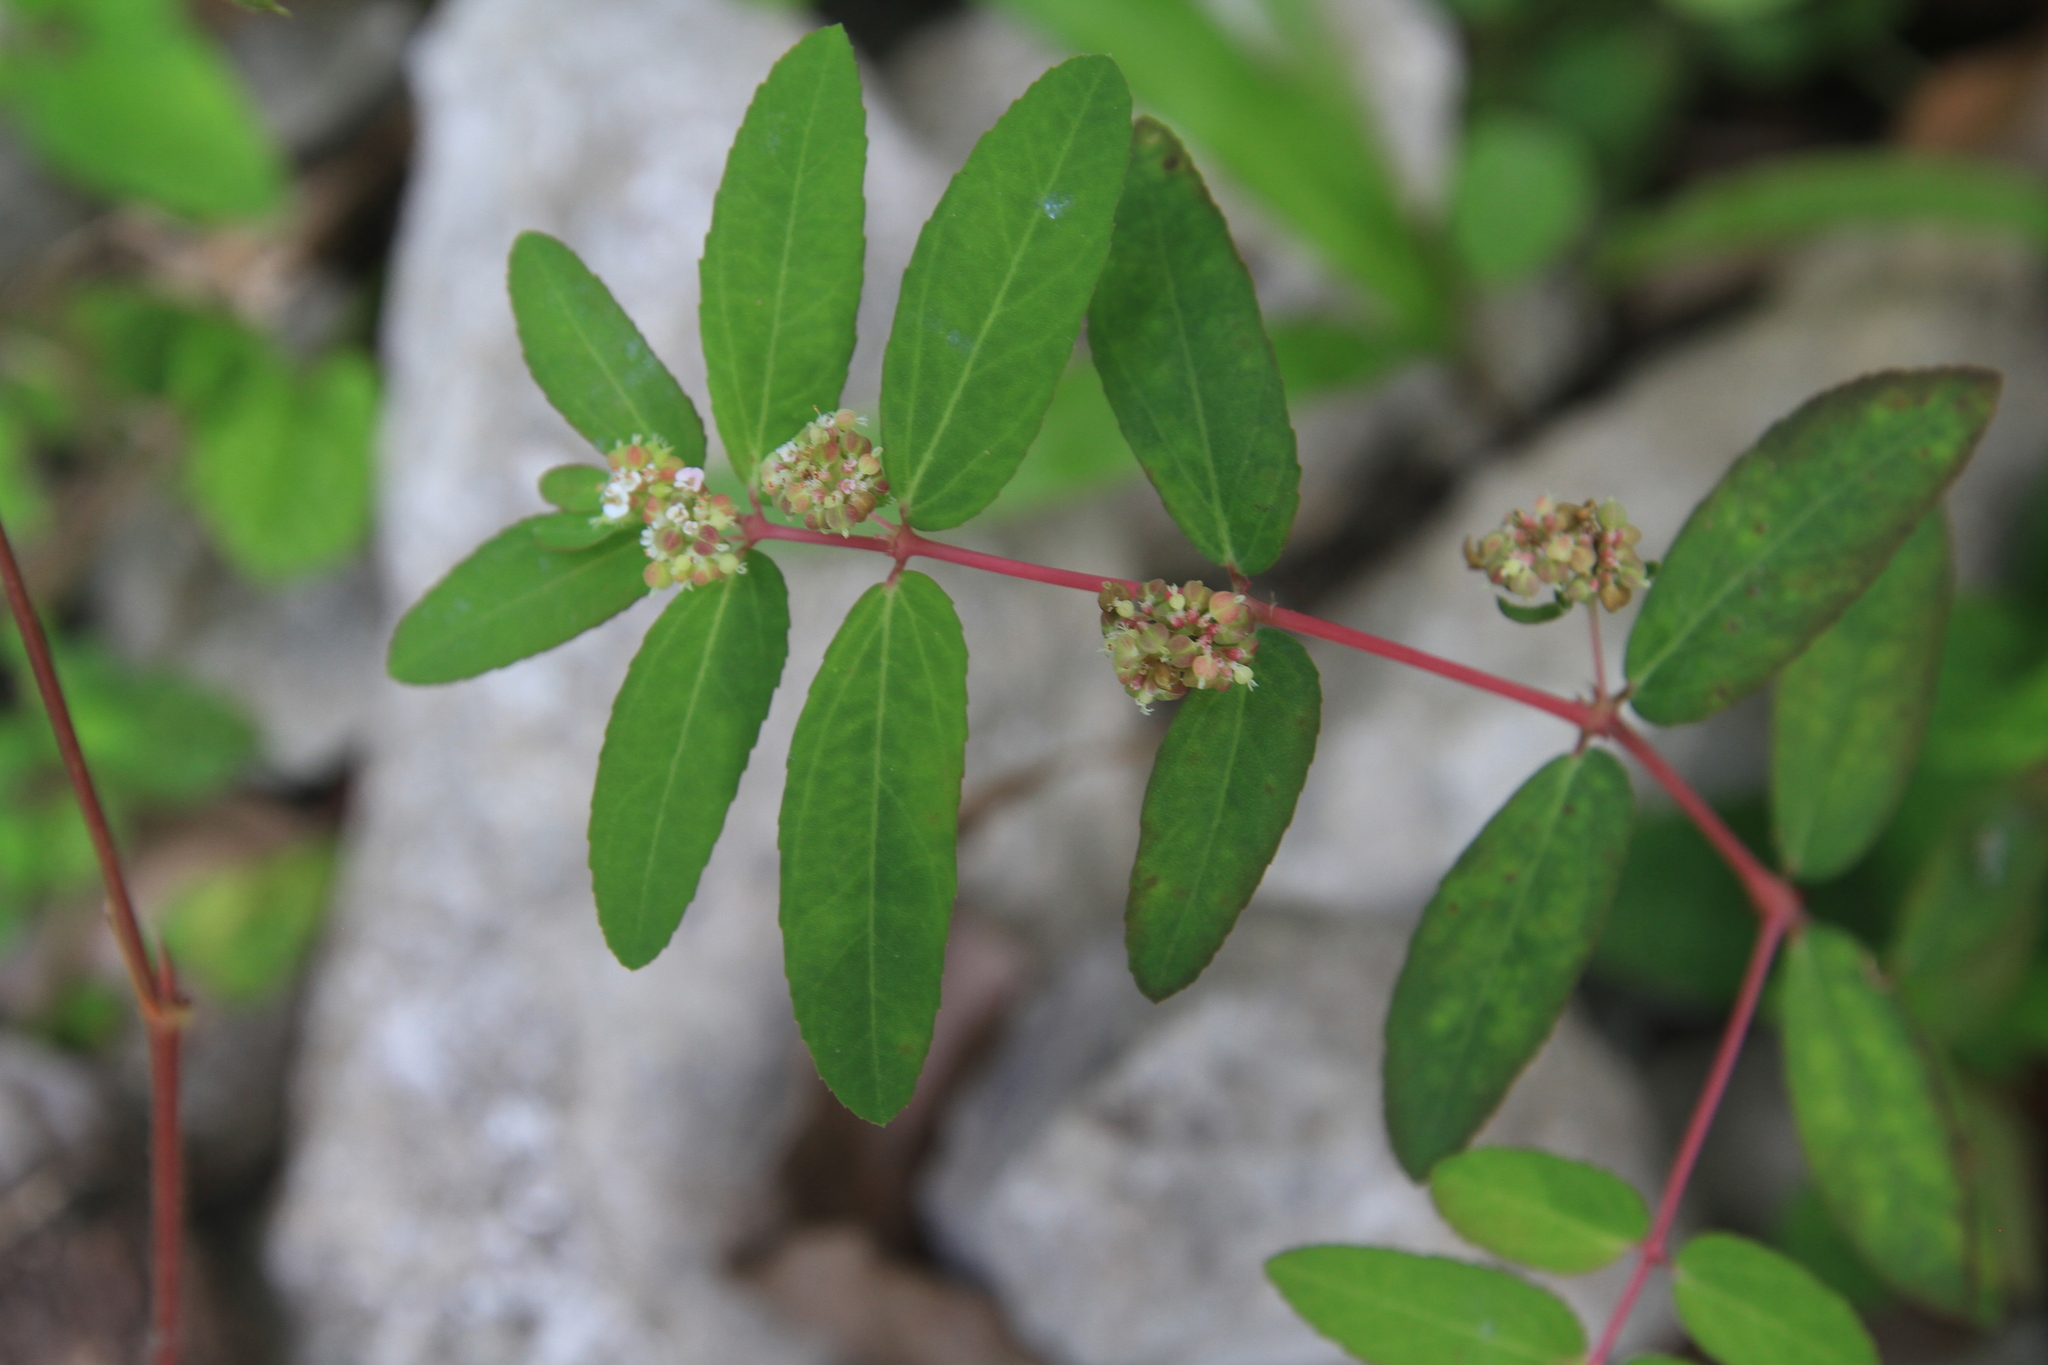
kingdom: Plantae
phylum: Tracheophyta
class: Magnoliopsida
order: Malpighiales
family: Euphorbiaceae
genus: Euphorbia
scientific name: Euphorbia hypericifolia
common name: Graceful sandmat
